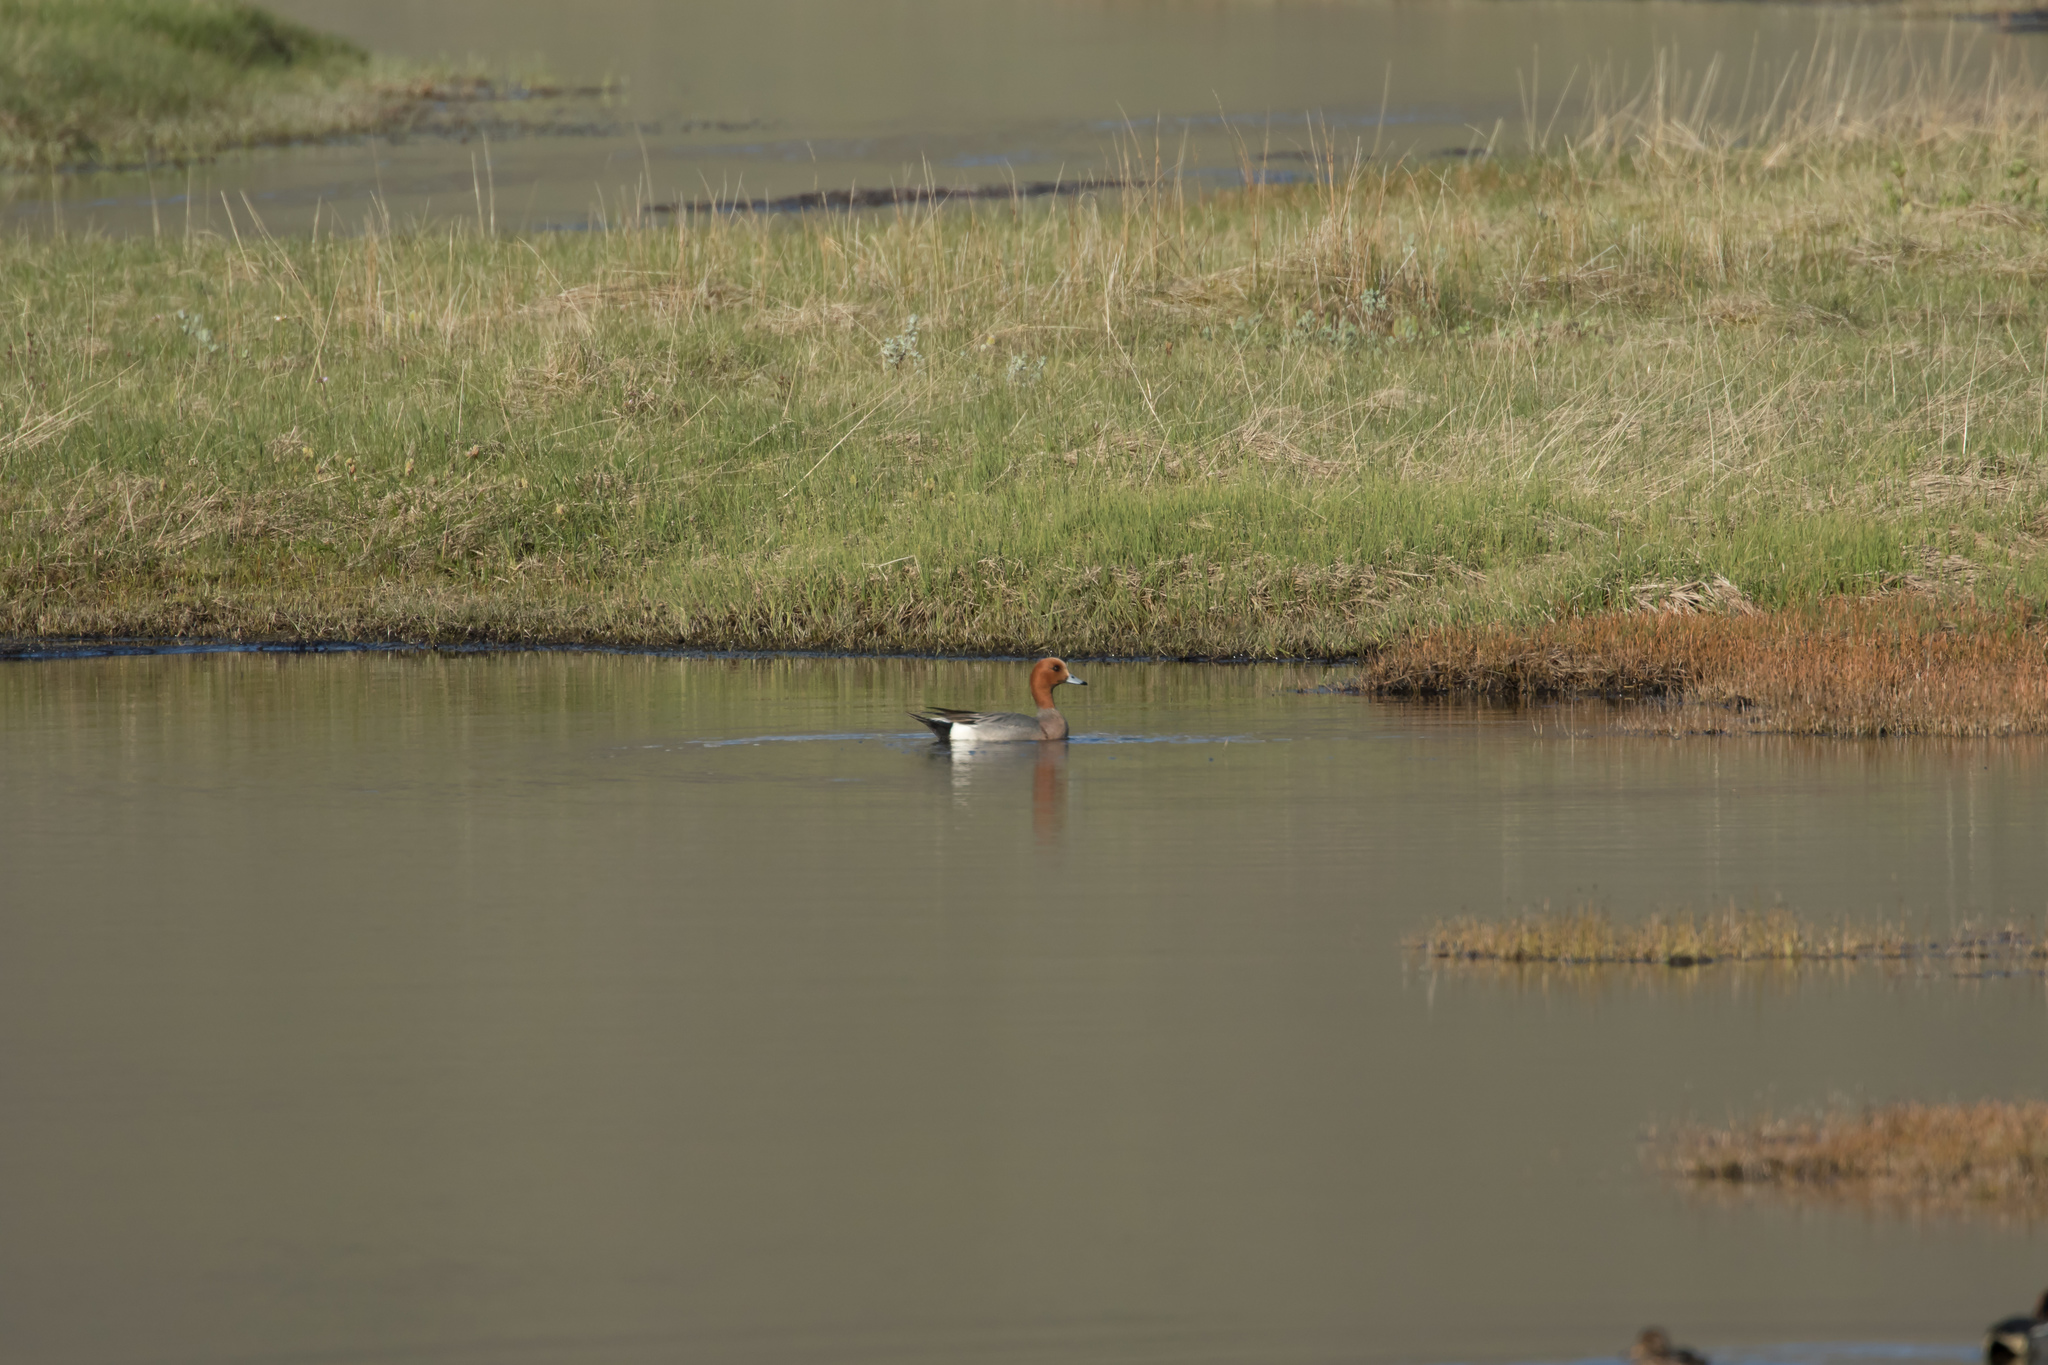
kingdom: Animalia
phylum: Chordata
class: Aves
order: Anseriformes
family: Anatidae
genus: Mareca
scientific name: Mareca penelope
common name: Eurasian wigeon
